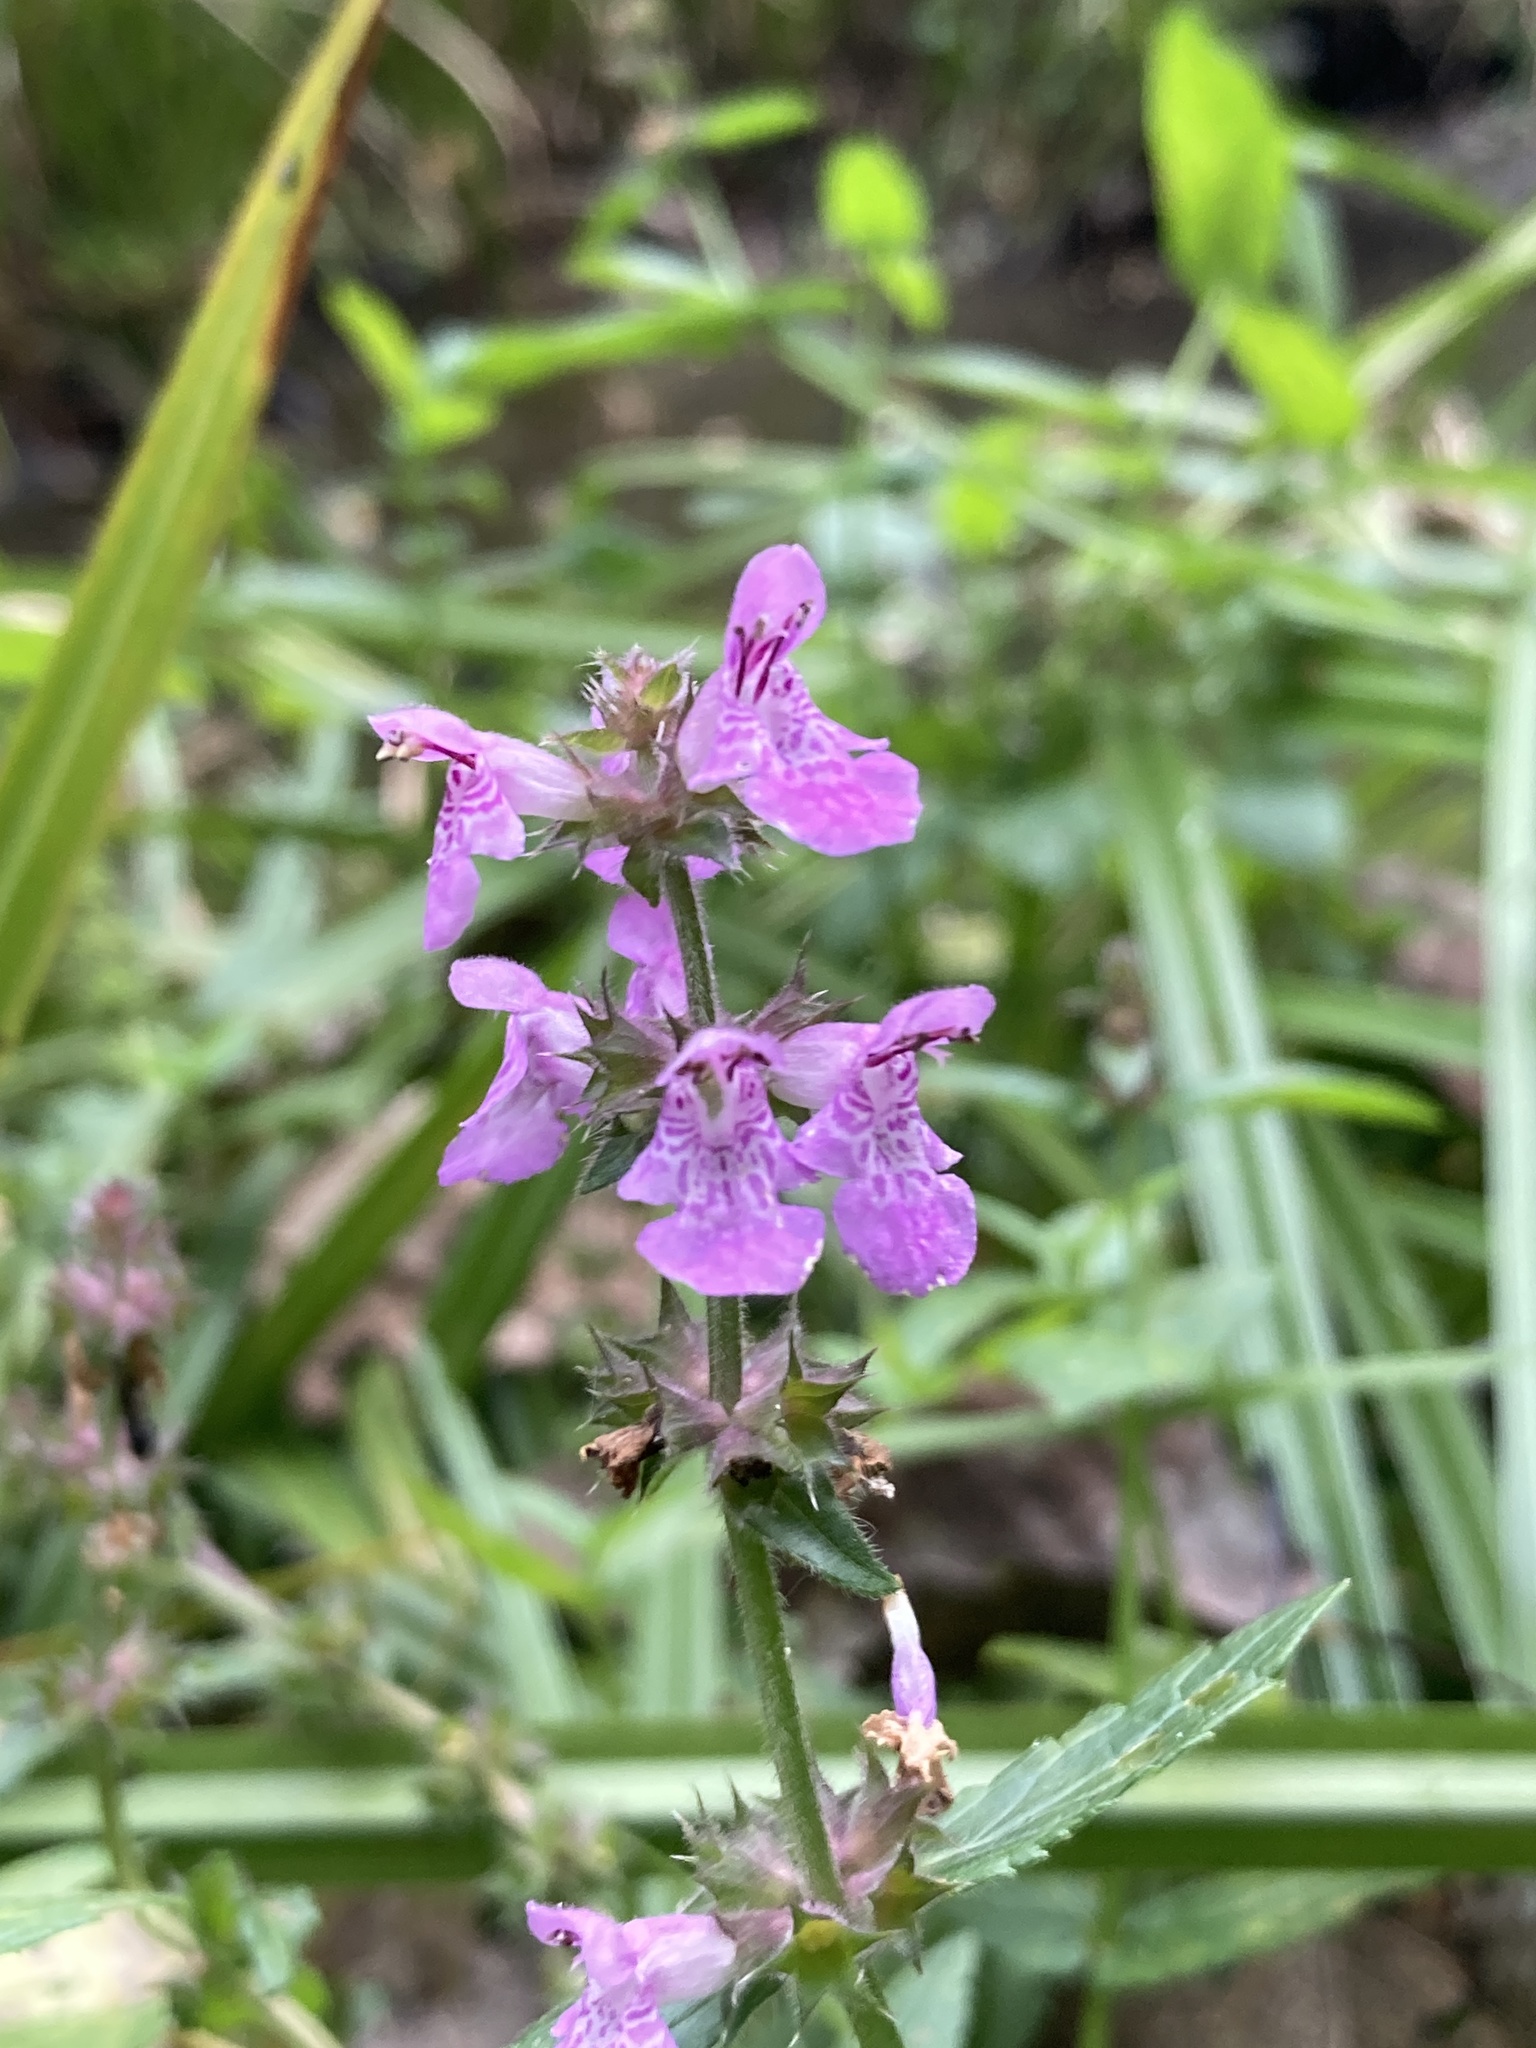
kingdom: Plantae
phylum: Tracheophyta
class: Magnoliopsida
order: Lamiales
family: Lamiaceae
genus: Stachys
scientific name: Stachys palustris
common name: Marsh woundwort
